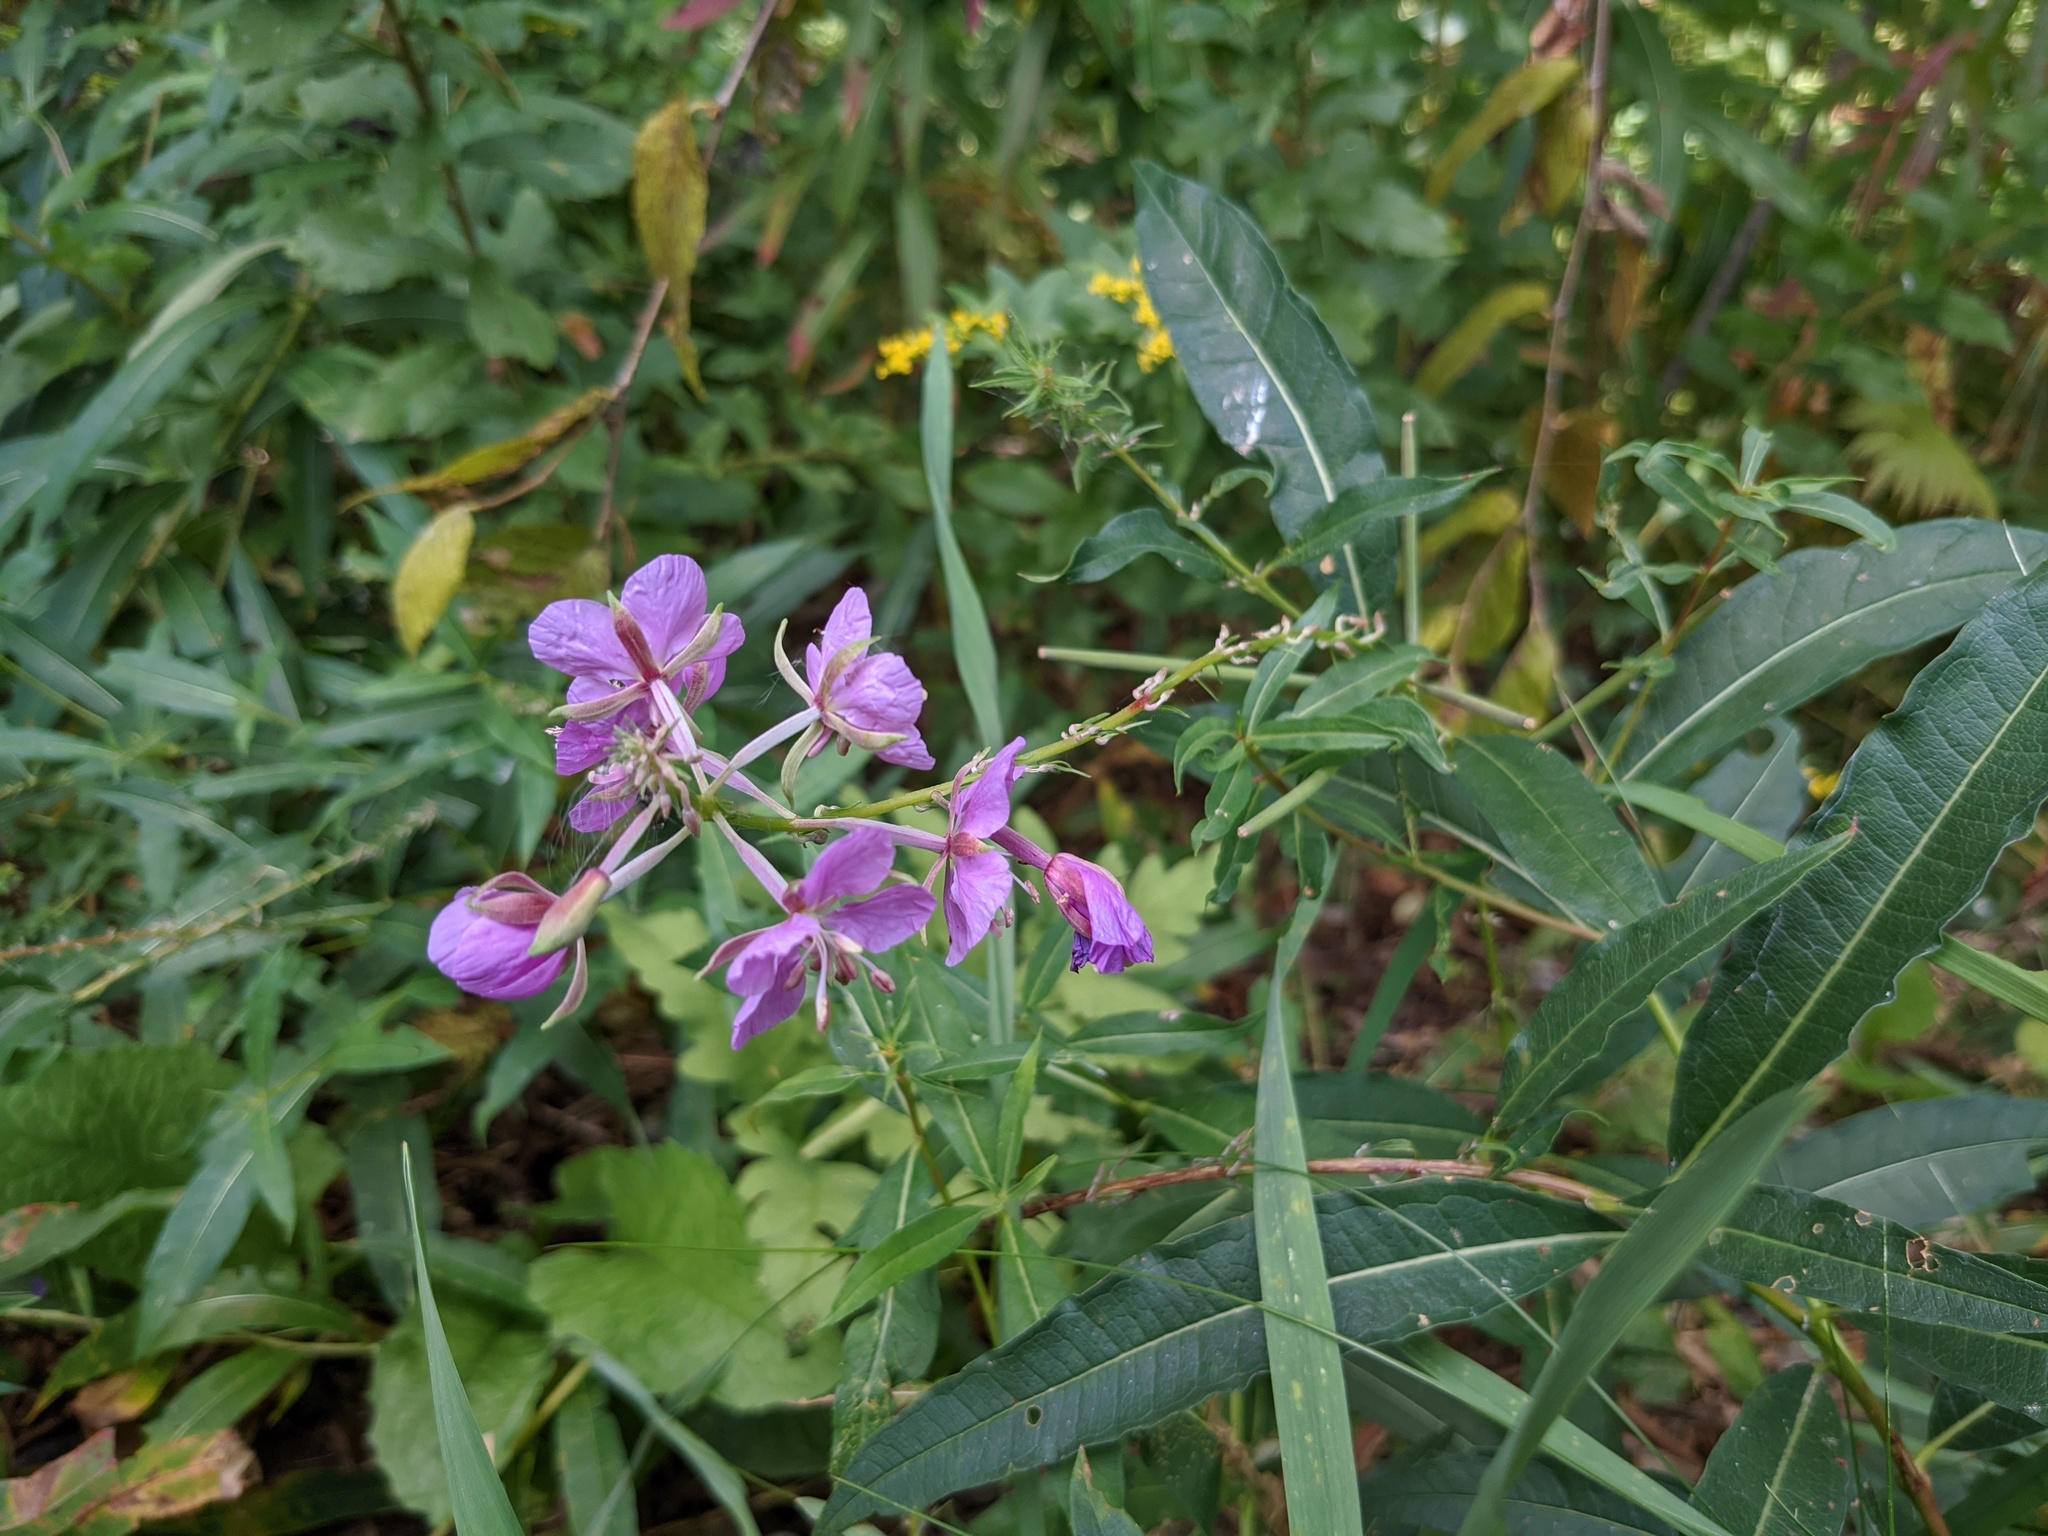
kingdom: Plantae
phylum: Tracheophyta
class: Magnoliopsida
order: Myrtales
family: Onagraceae
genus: Chamaenerion
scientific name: Chamaenerion angustifolium
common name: Fireweed
